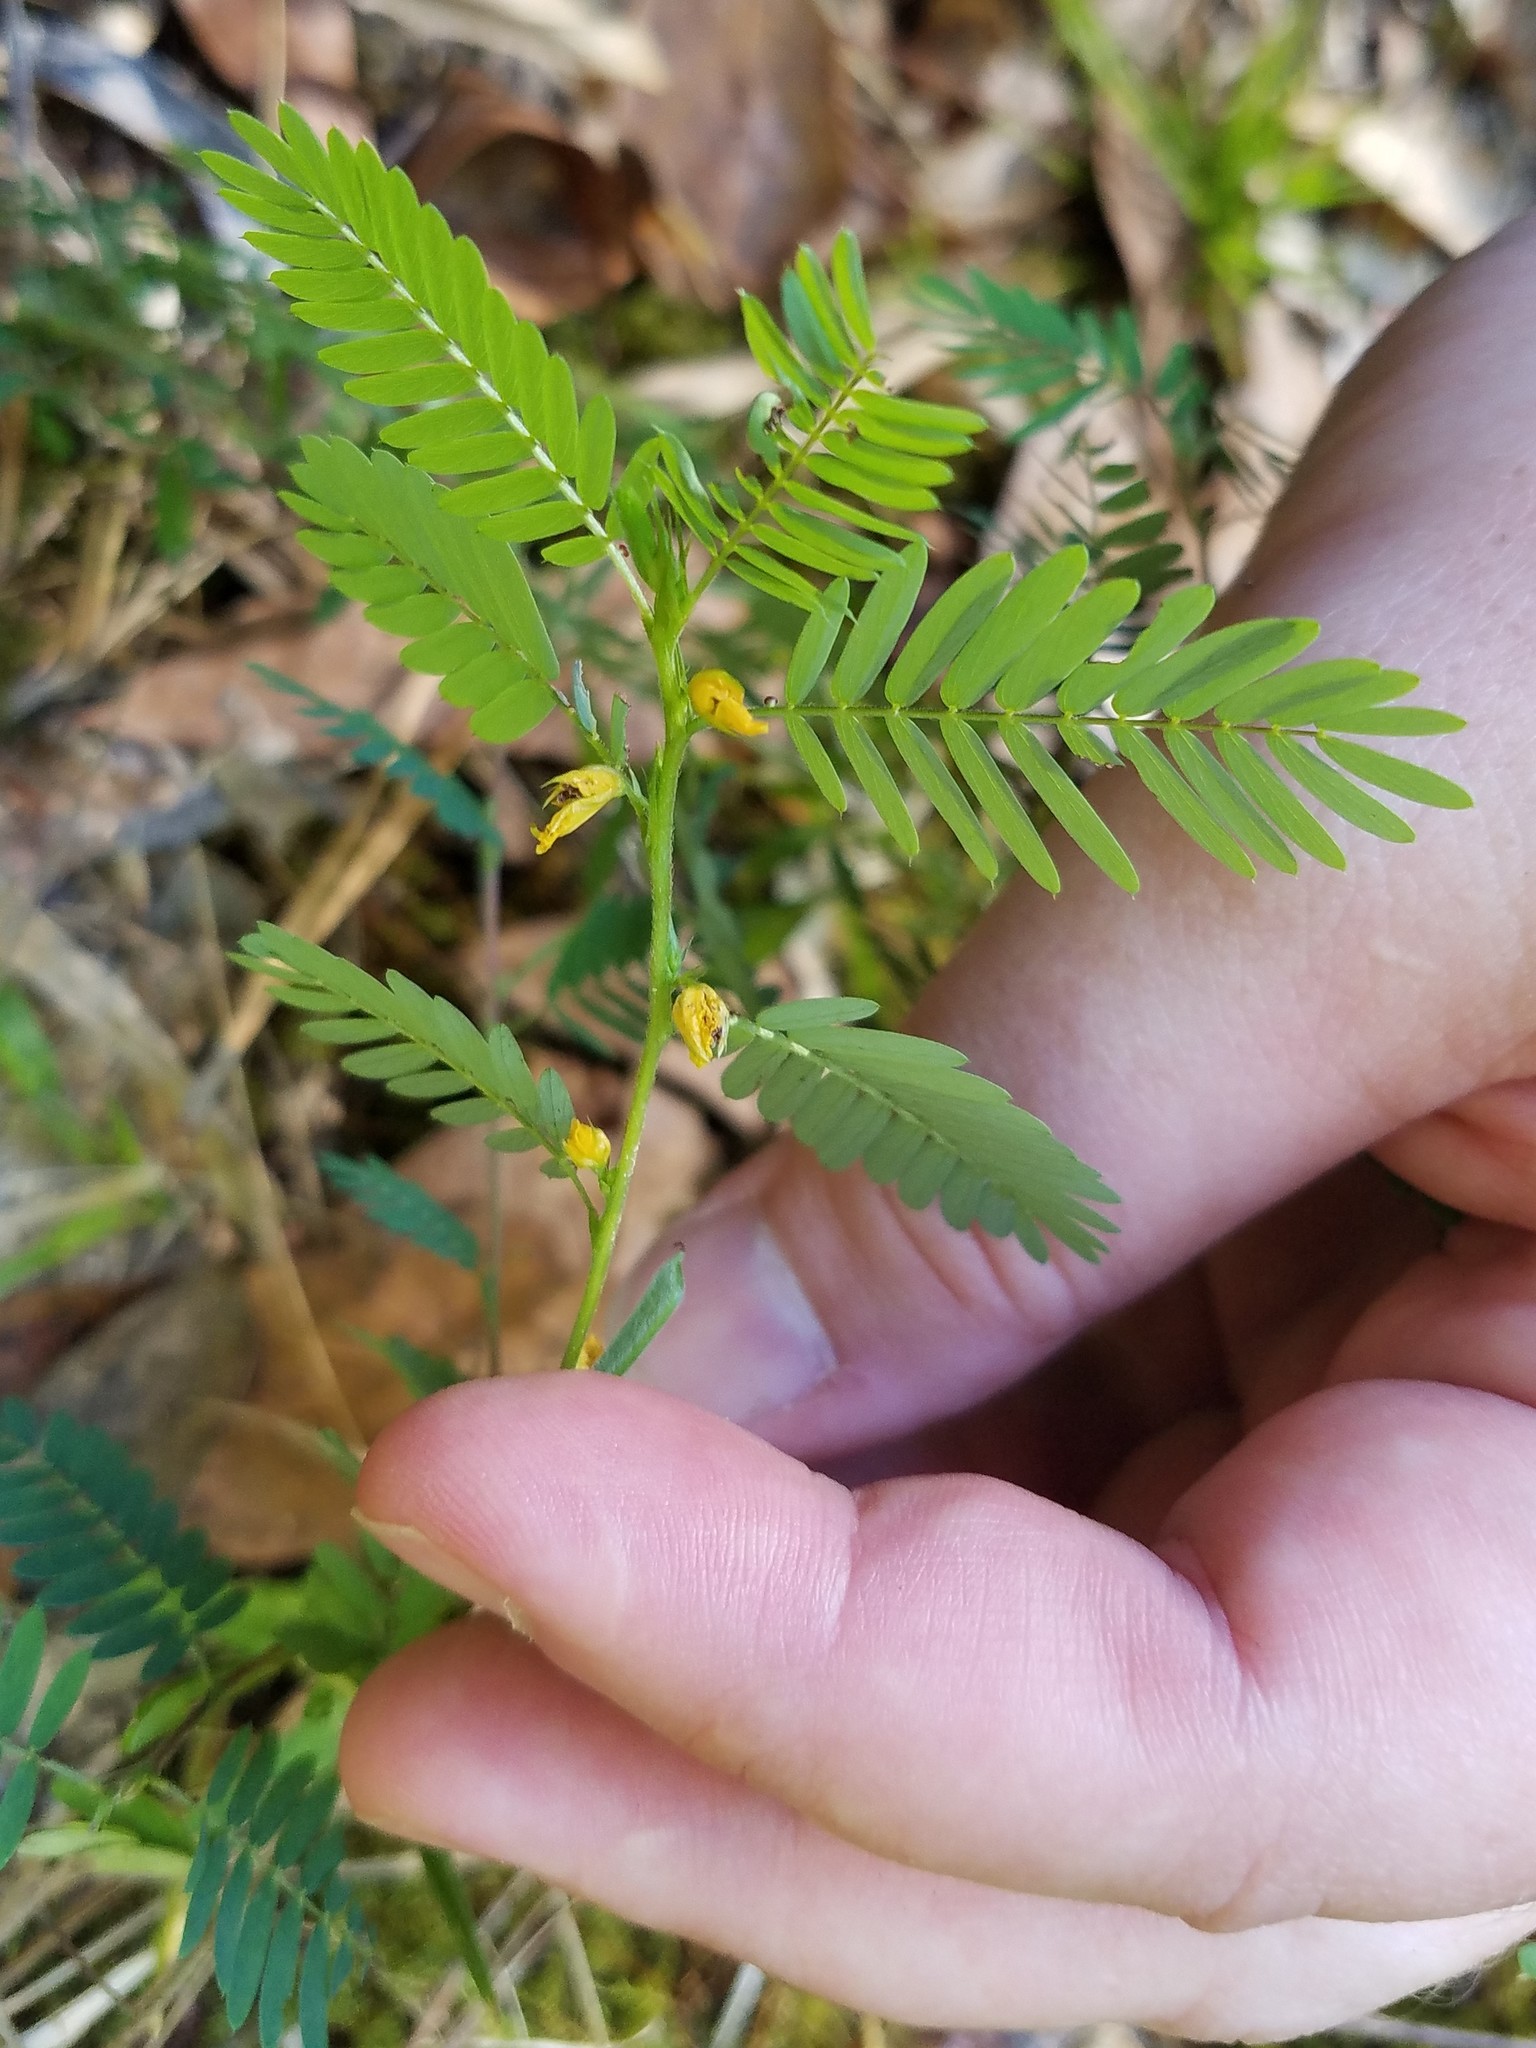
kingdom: Plantae
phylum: Tracheophyta
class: Magnoliopsida
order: Fabales
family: Fabaceae
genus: Chamaecrista
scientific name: Chamaecrista nictitans
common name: Sensitive cassia
